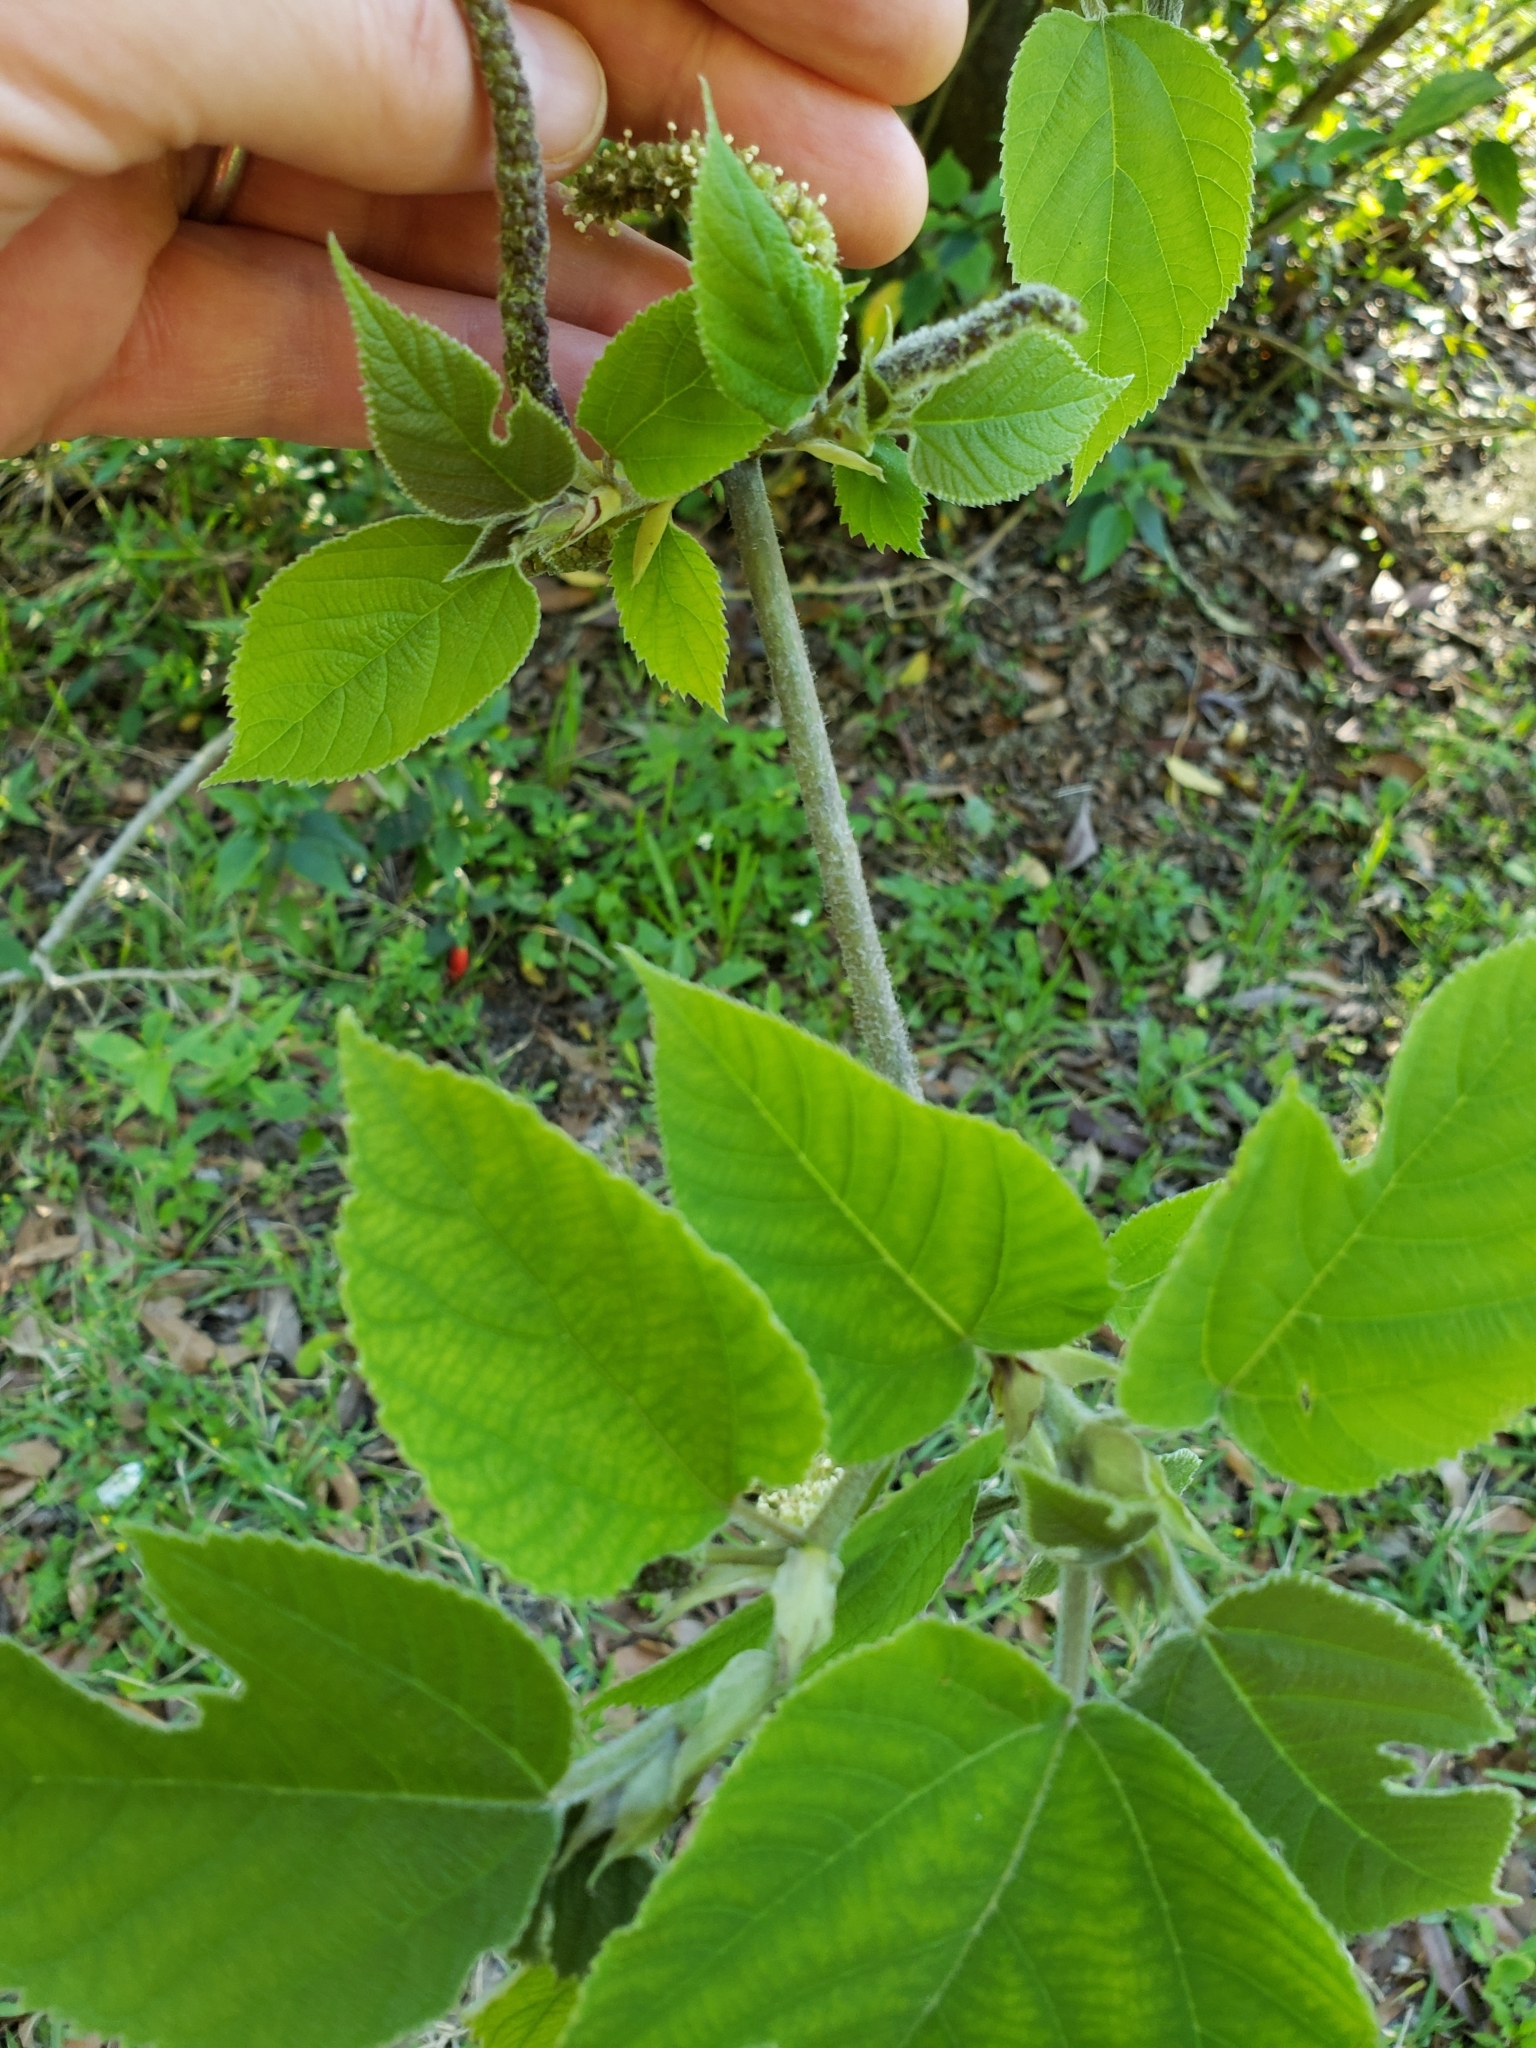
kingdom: Plantae
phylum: Tracheophyta
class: Magnoliopsida
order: Rosales
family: Moraceae
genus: Broussonetia
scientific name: Broussonetia papyrifera
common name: Paper mulberry
